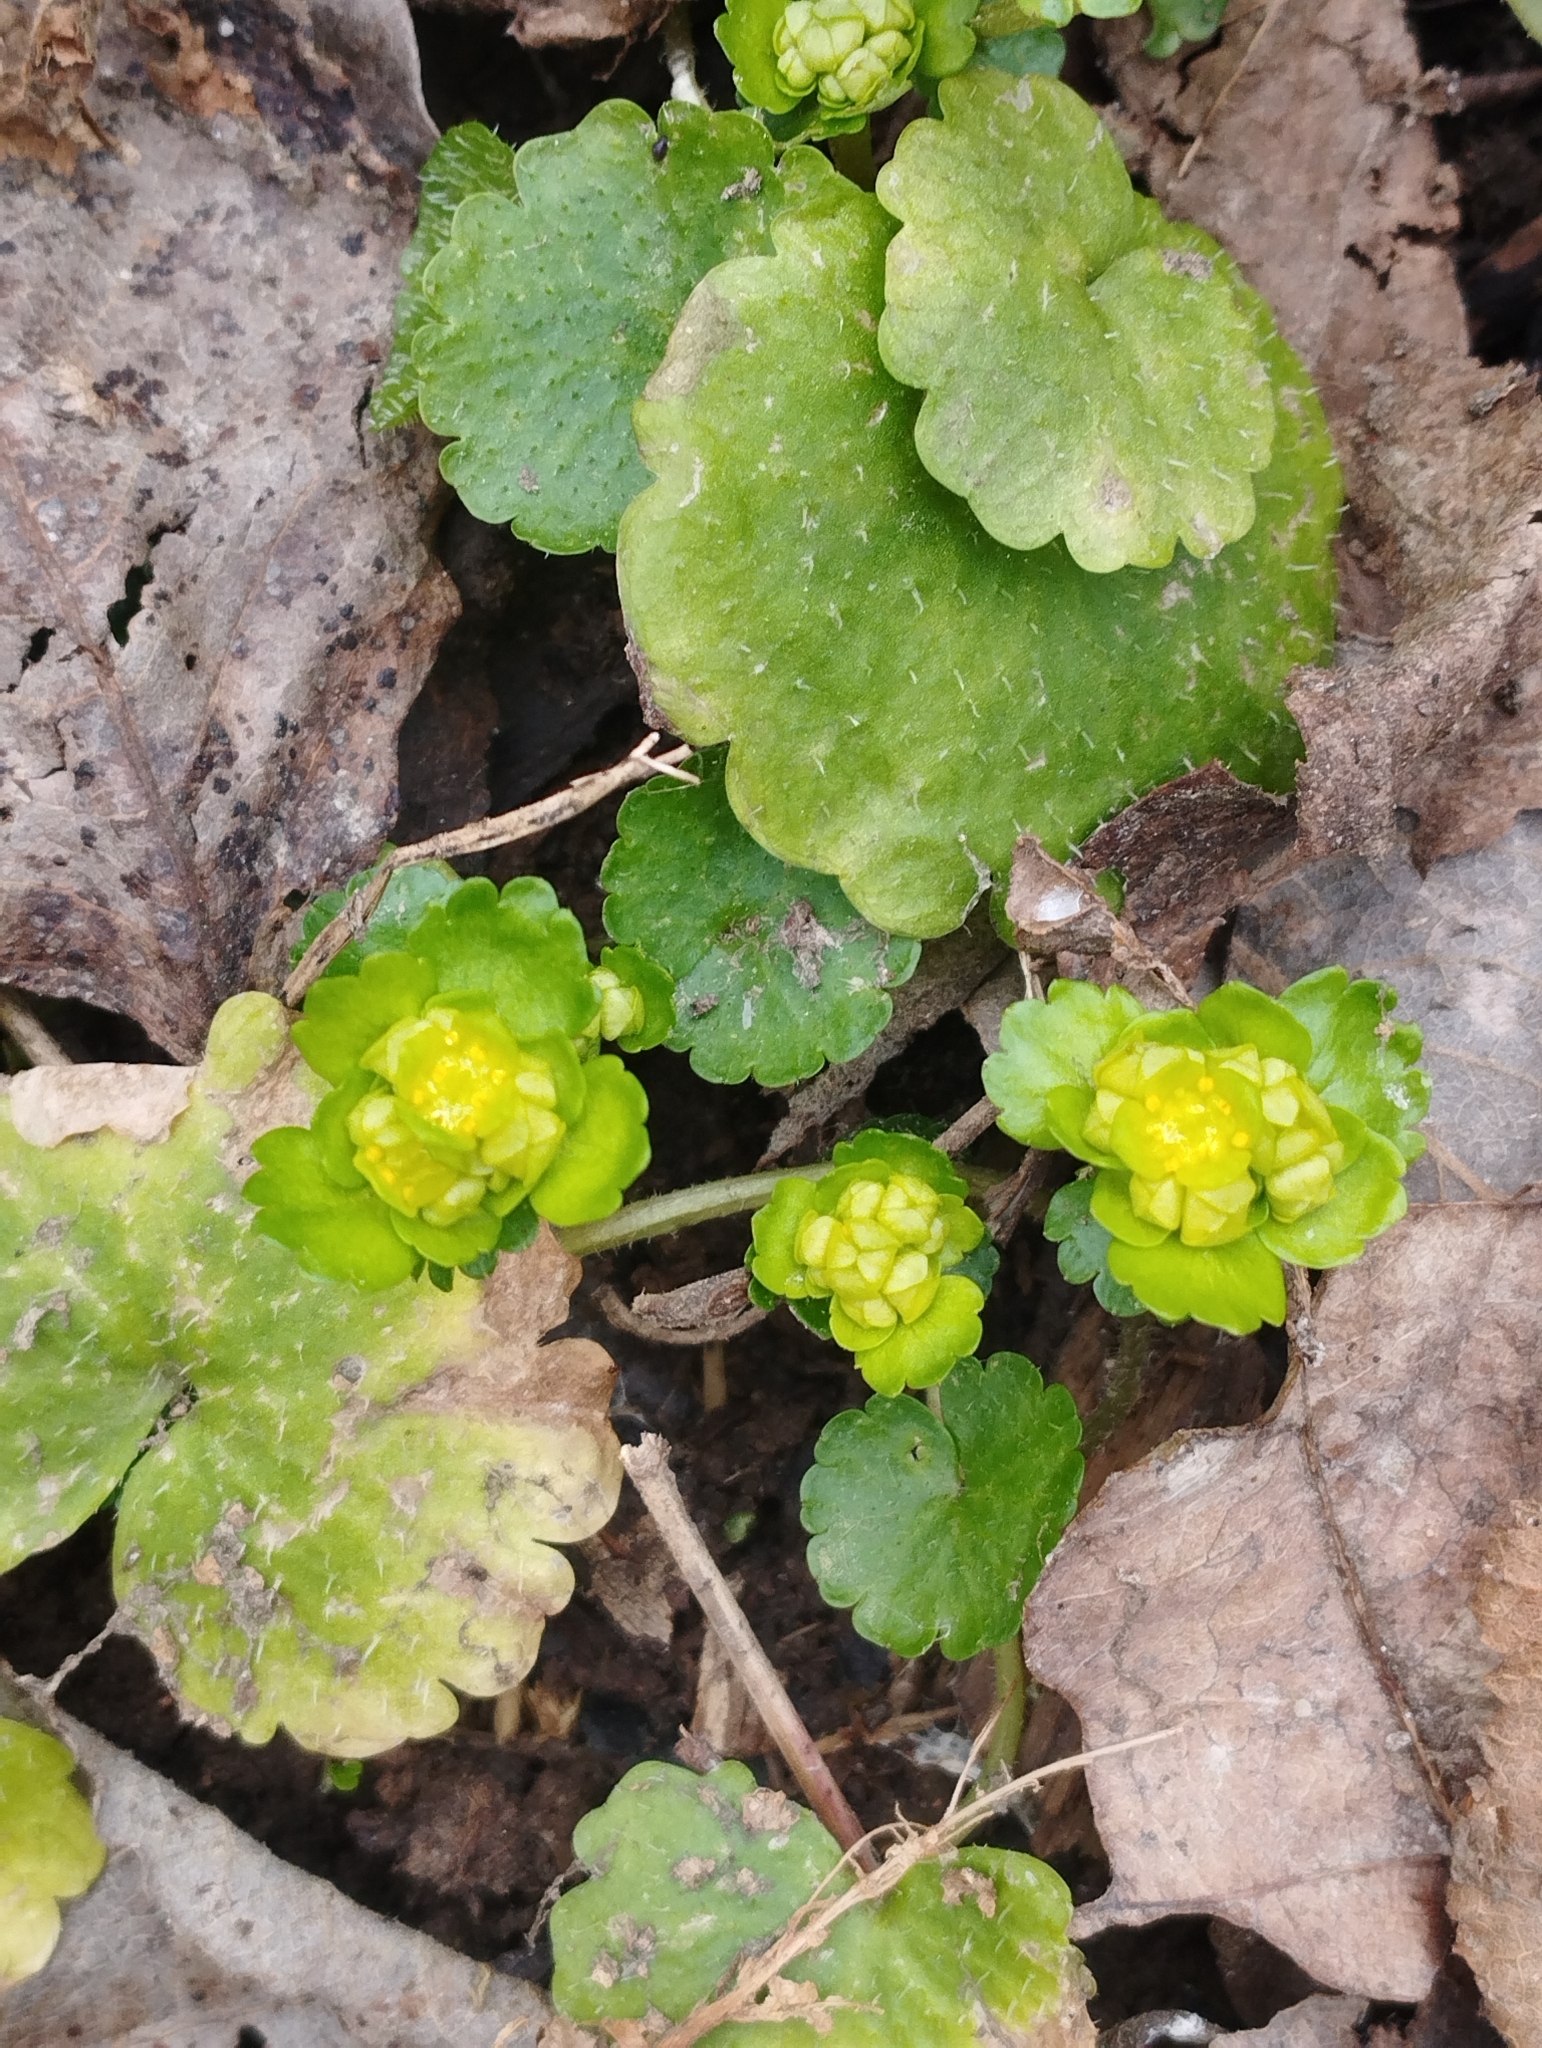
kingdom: Plantae
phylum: Tracheophyta
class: Magnoliopsida
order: Saxifragales
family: Saxifragaceae
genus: Chrysosplenium
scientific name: Chrysosplenium alternifolium
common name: Alternate-leaved golden-saxifrage
